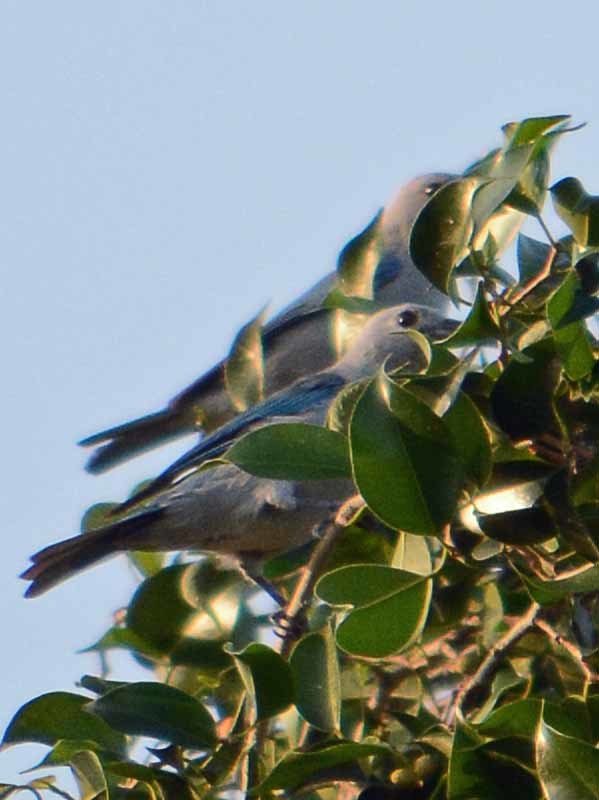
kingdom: Animalia
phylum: Chordata
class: Aves
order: Passeriformes
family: Thraupidae
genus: Thraupis
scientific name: Thraupis episcopus
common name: Blue-grey tanager
